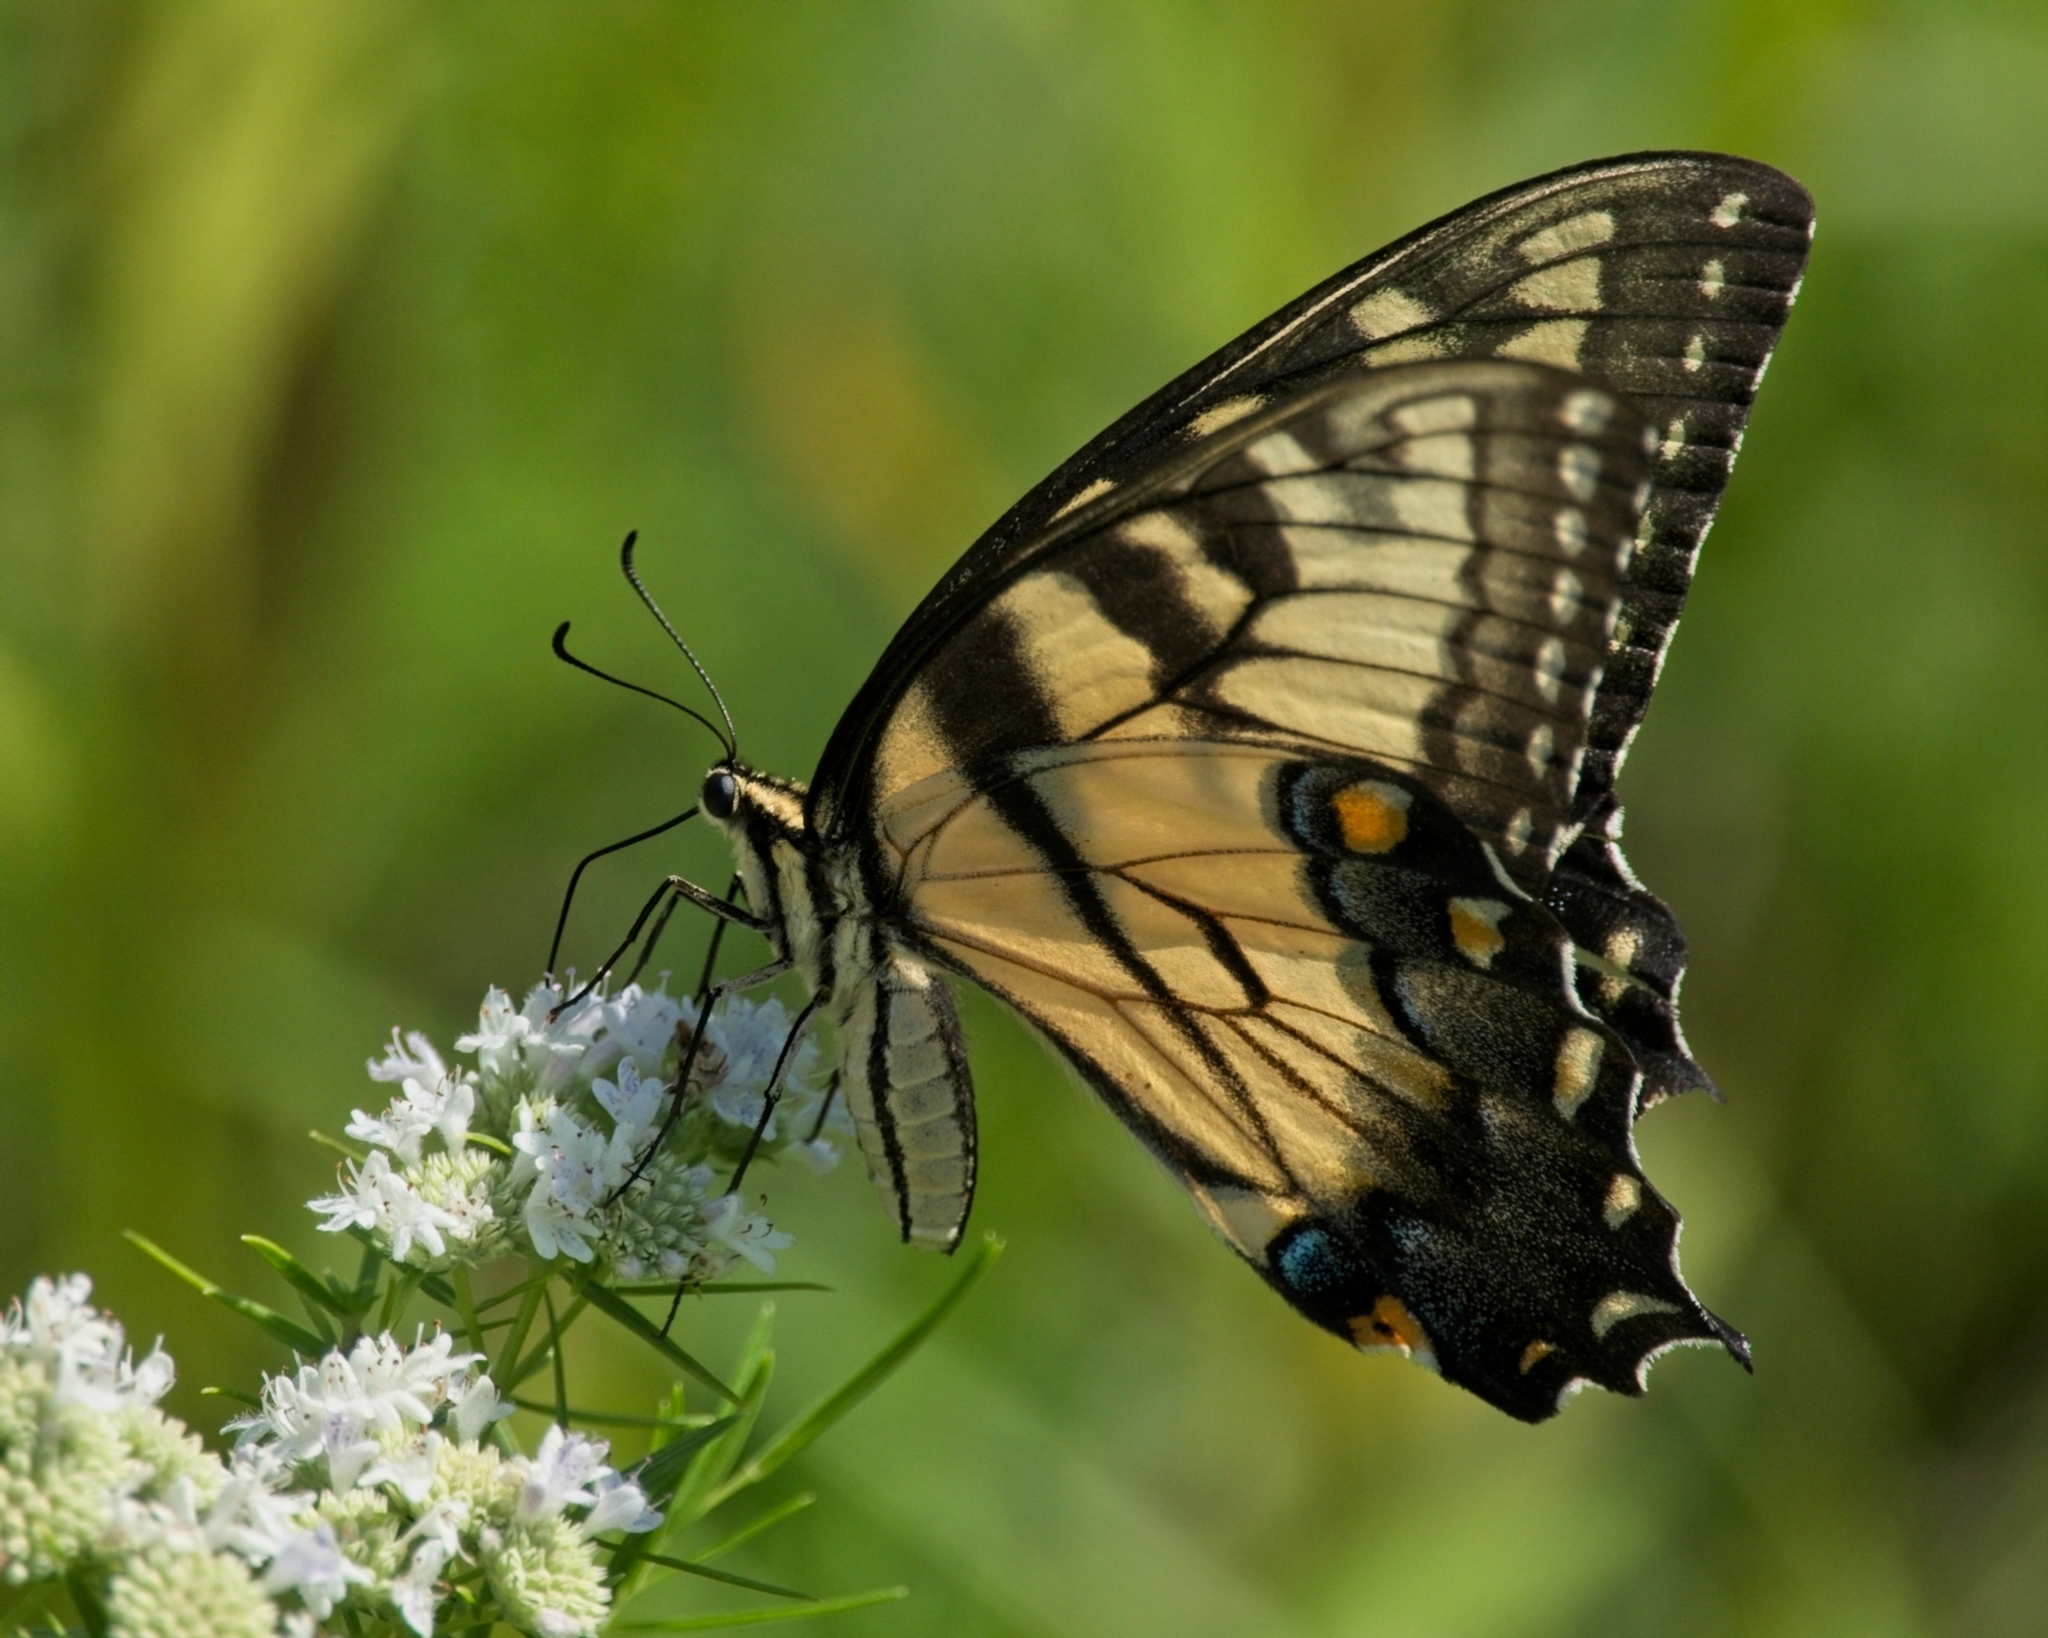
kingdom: Animalia
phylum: Arthropoda
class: Insecta
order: Lepidoptera
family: Papilionidae
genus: Papilio
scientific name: Papilio glaucus
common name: Tiger swallowtail
